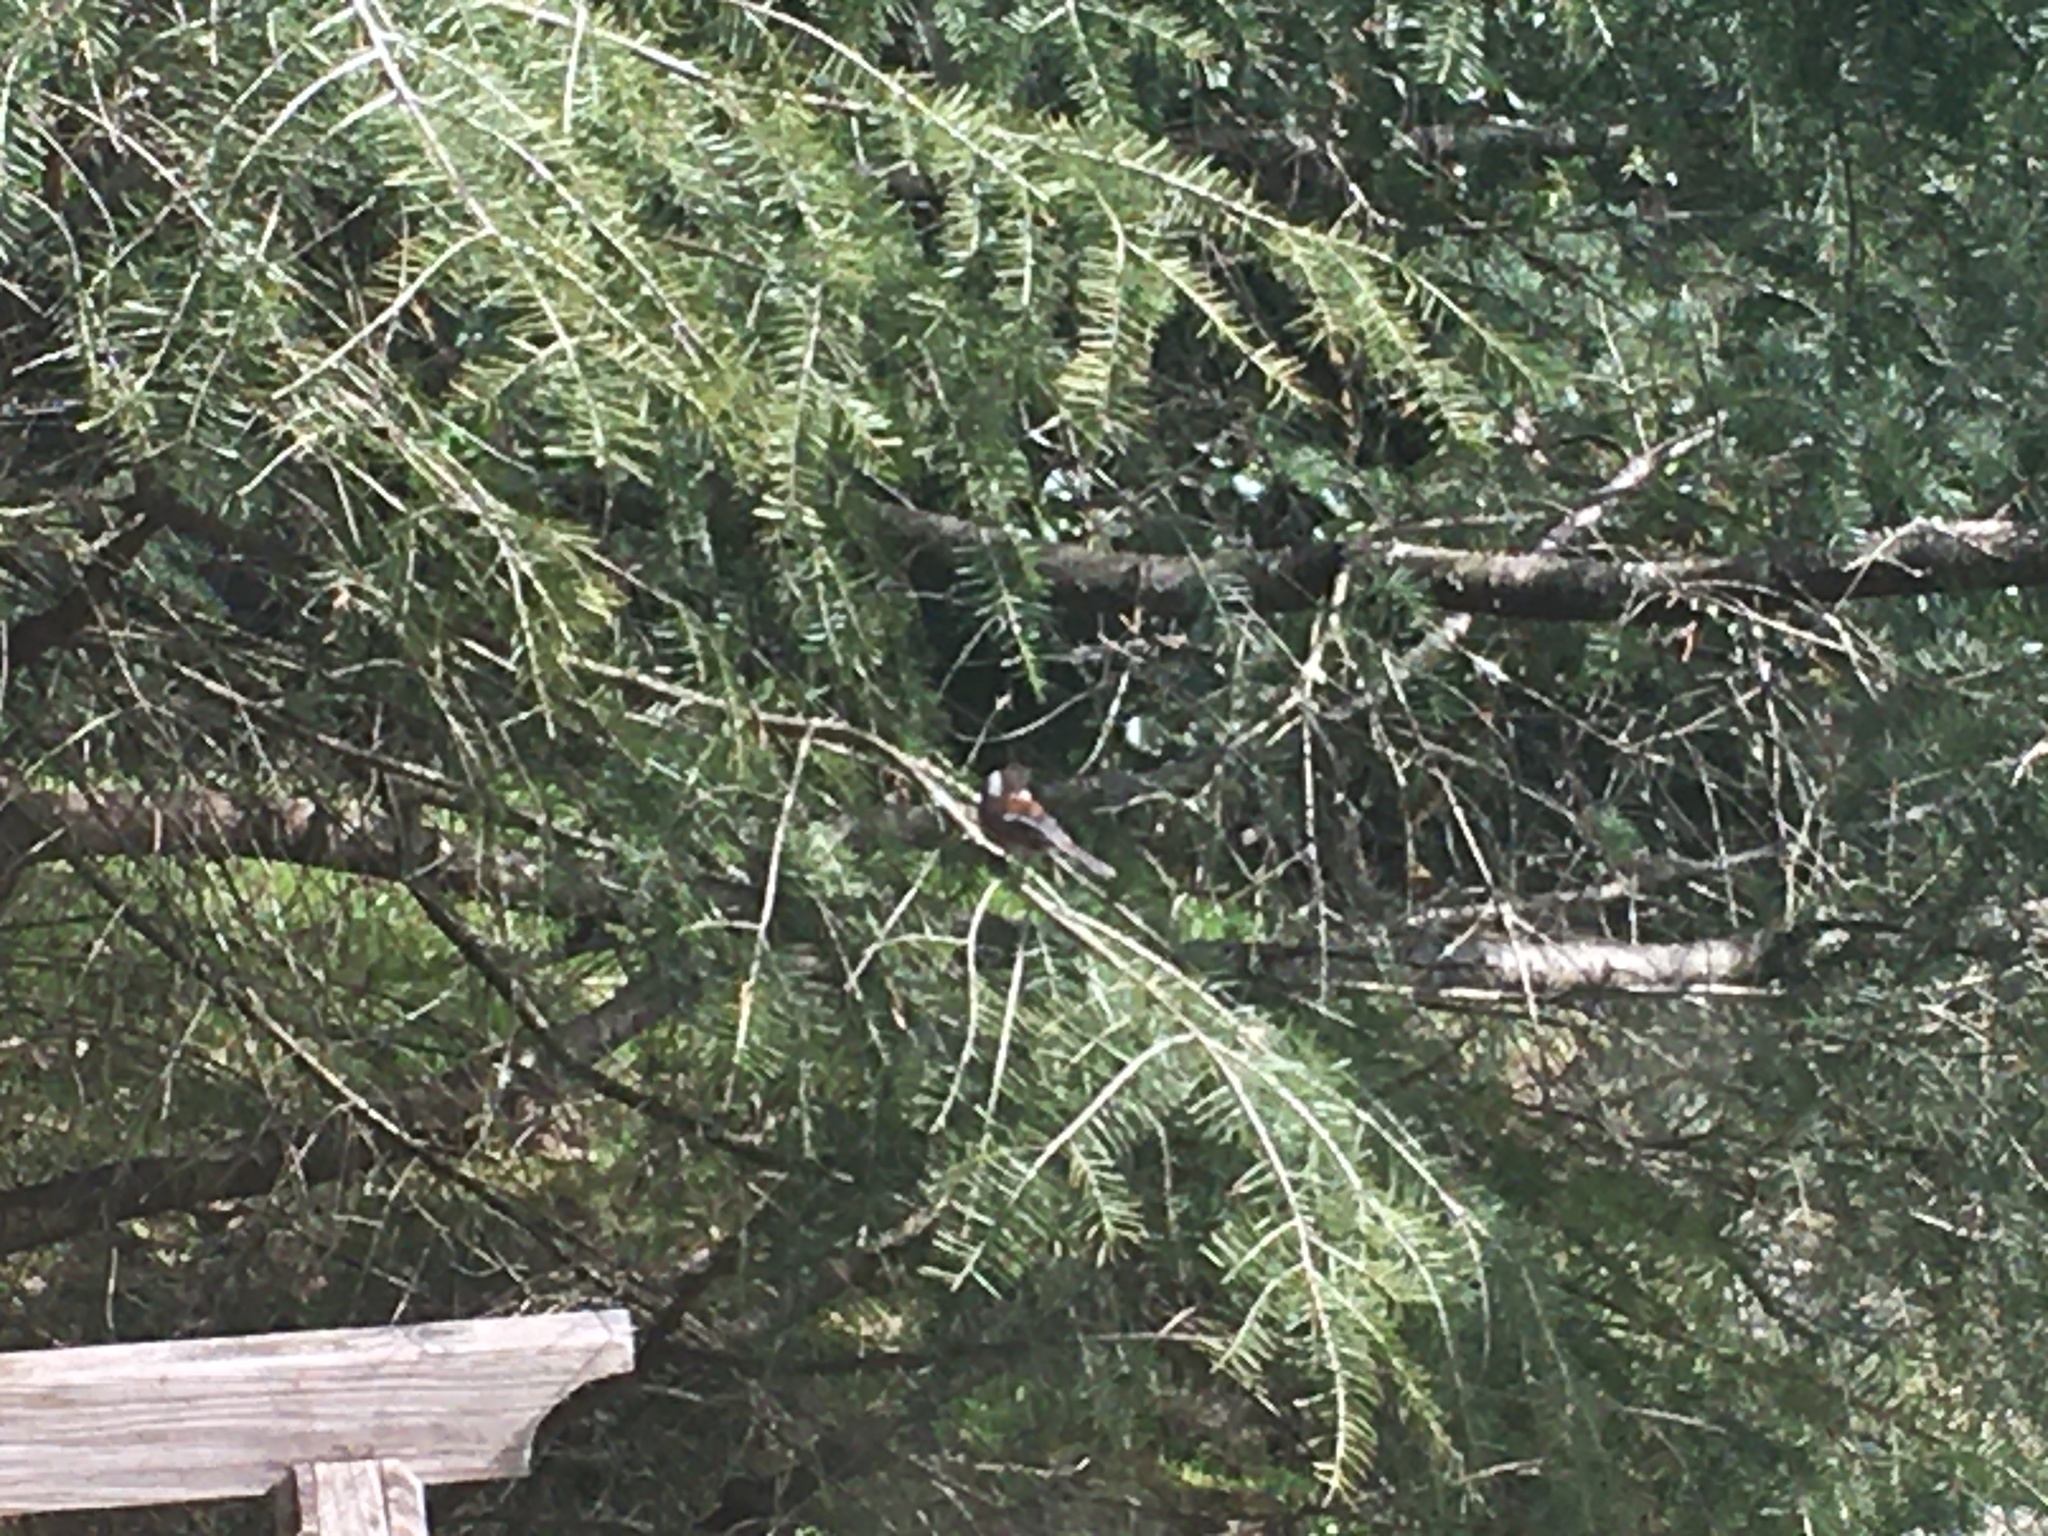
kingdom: Animalia
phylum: Chordata
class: Aves
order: Passeriformes
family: Paridae
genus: Poecile
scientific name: Poecile rufescens
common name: Chestnut-backed chickadee
